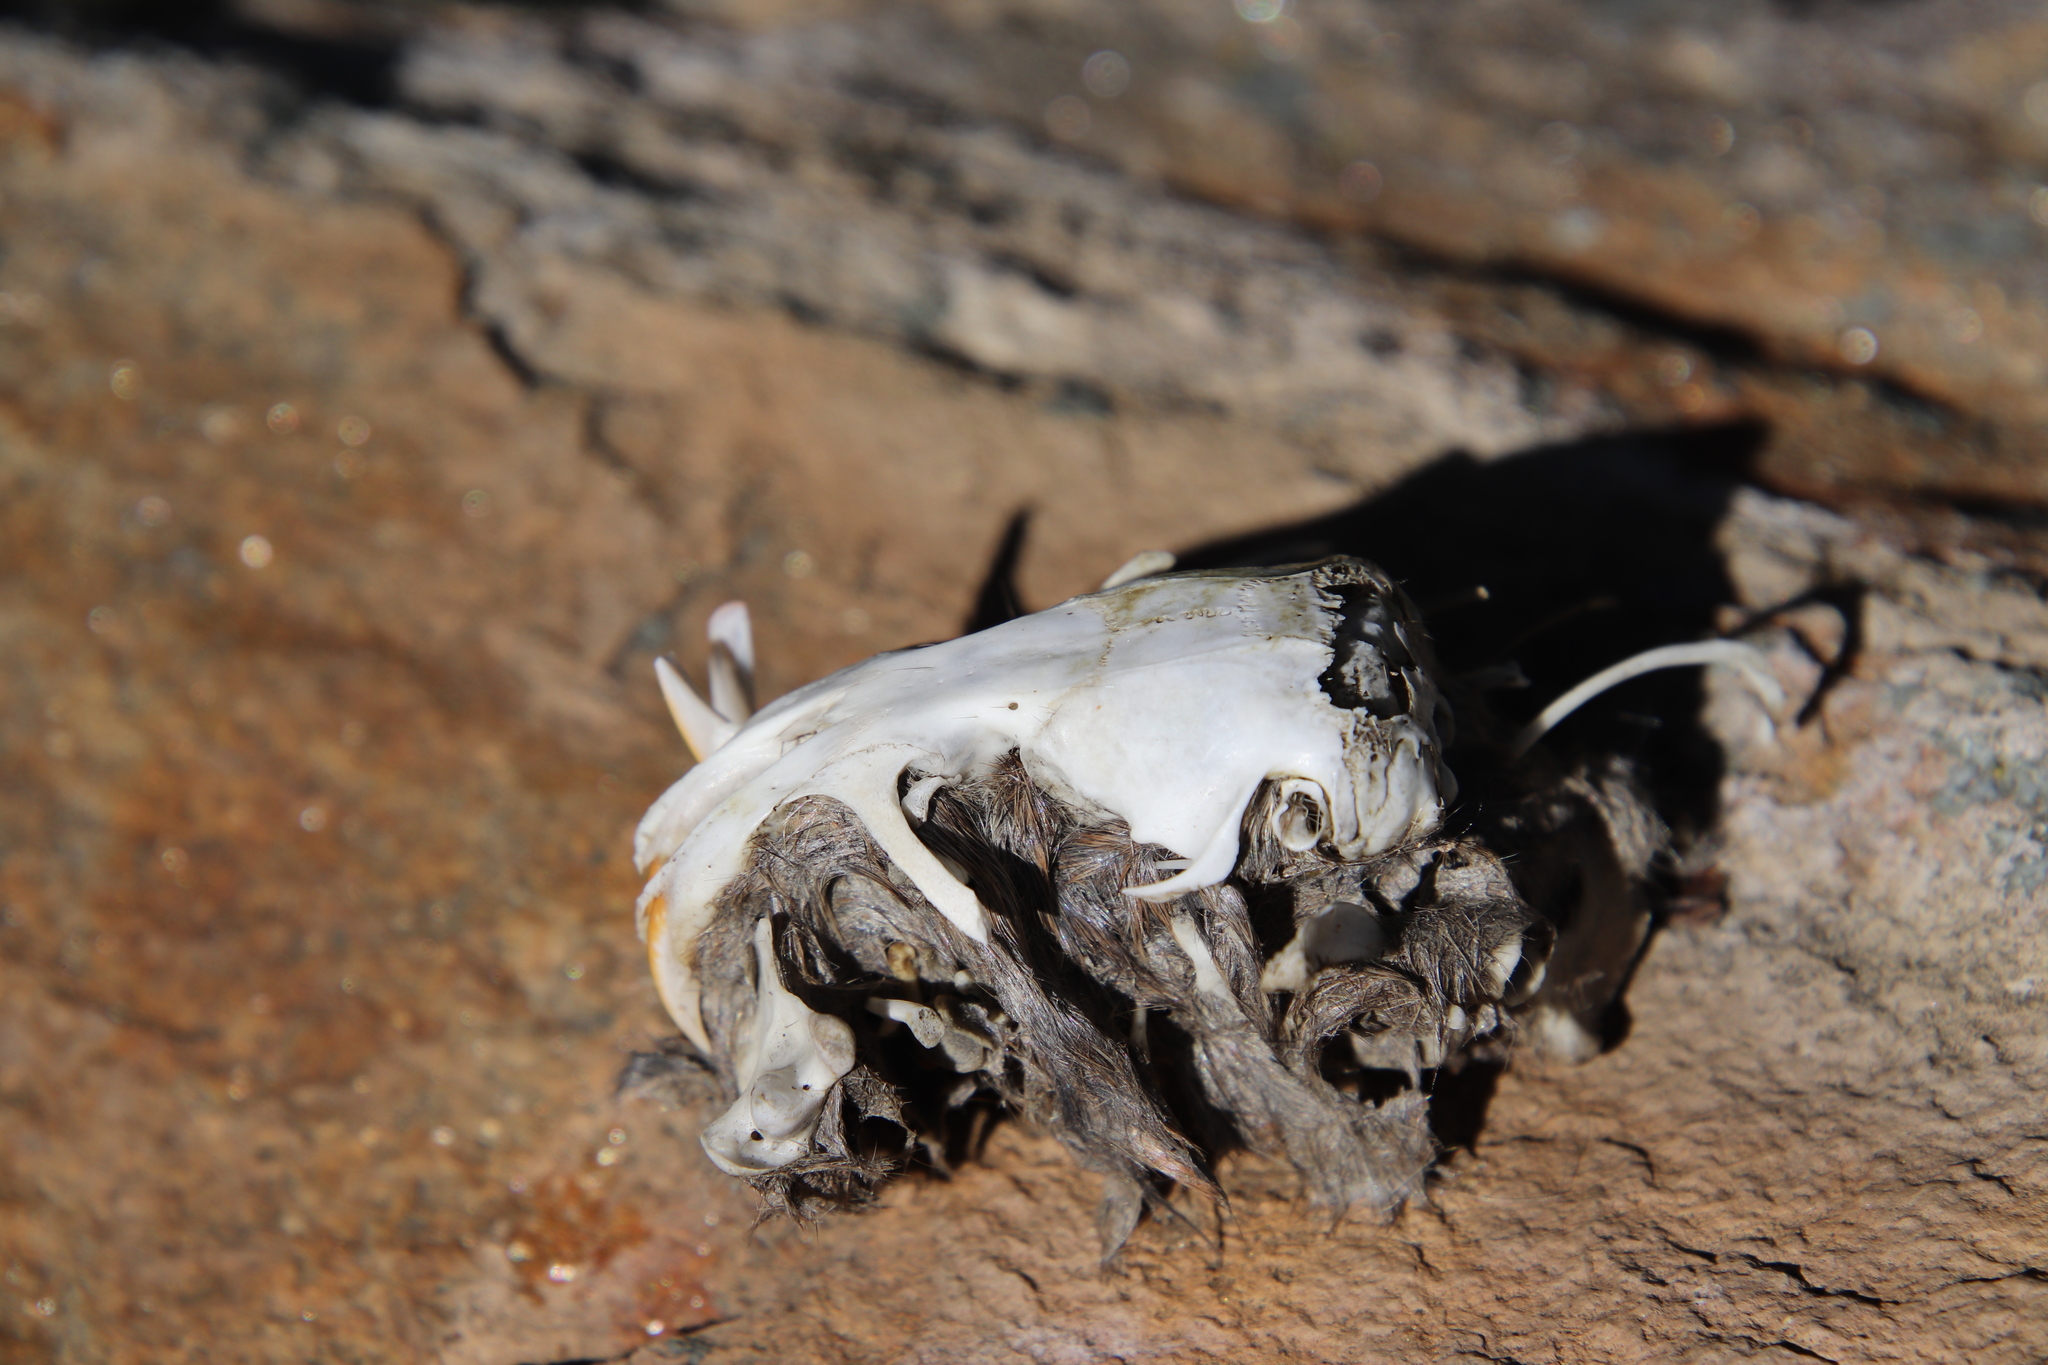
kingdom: Animalia
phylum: Chordata
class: Mammalia
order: Rodentia
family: Geomyidae
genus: Thomomys
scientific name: Thomomys bottae
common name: Botta's pocket gopher
